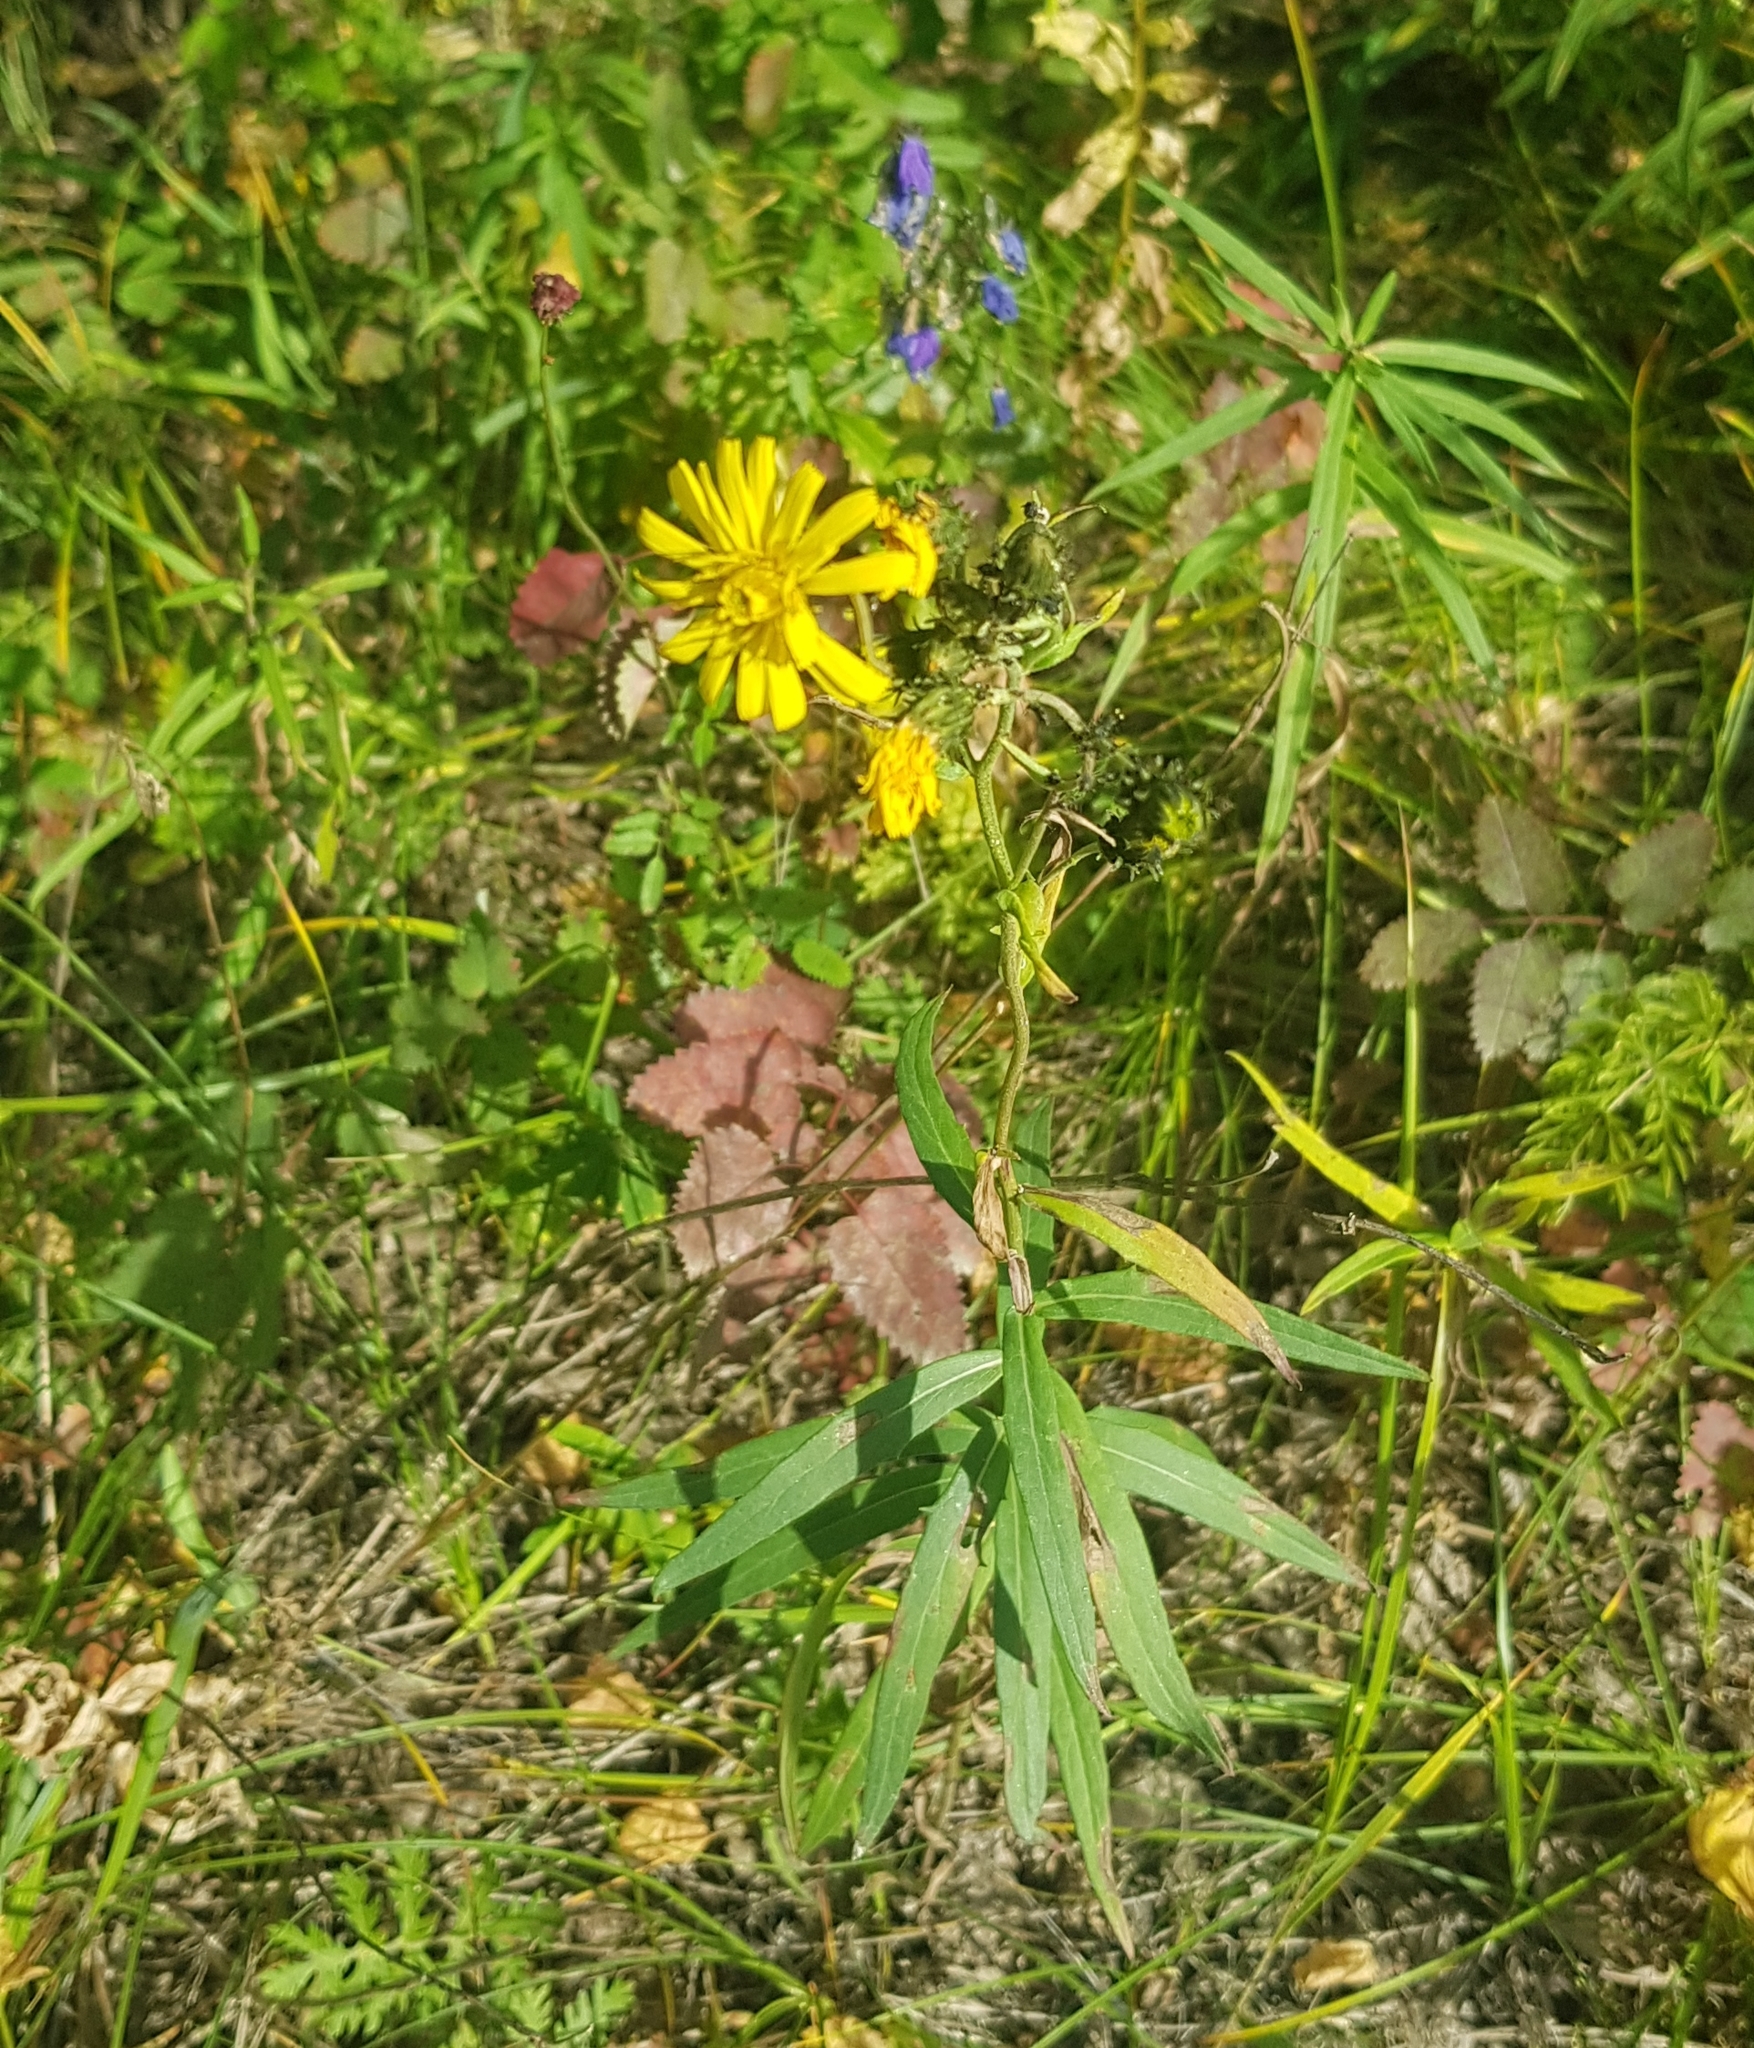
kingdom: Plantae
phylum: Tracheophyta
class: Magnoliopsida
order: Asterales
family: Asteraceae
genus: Hieracium
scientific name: Hieracium umbellatum
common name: Northern hawkweed
